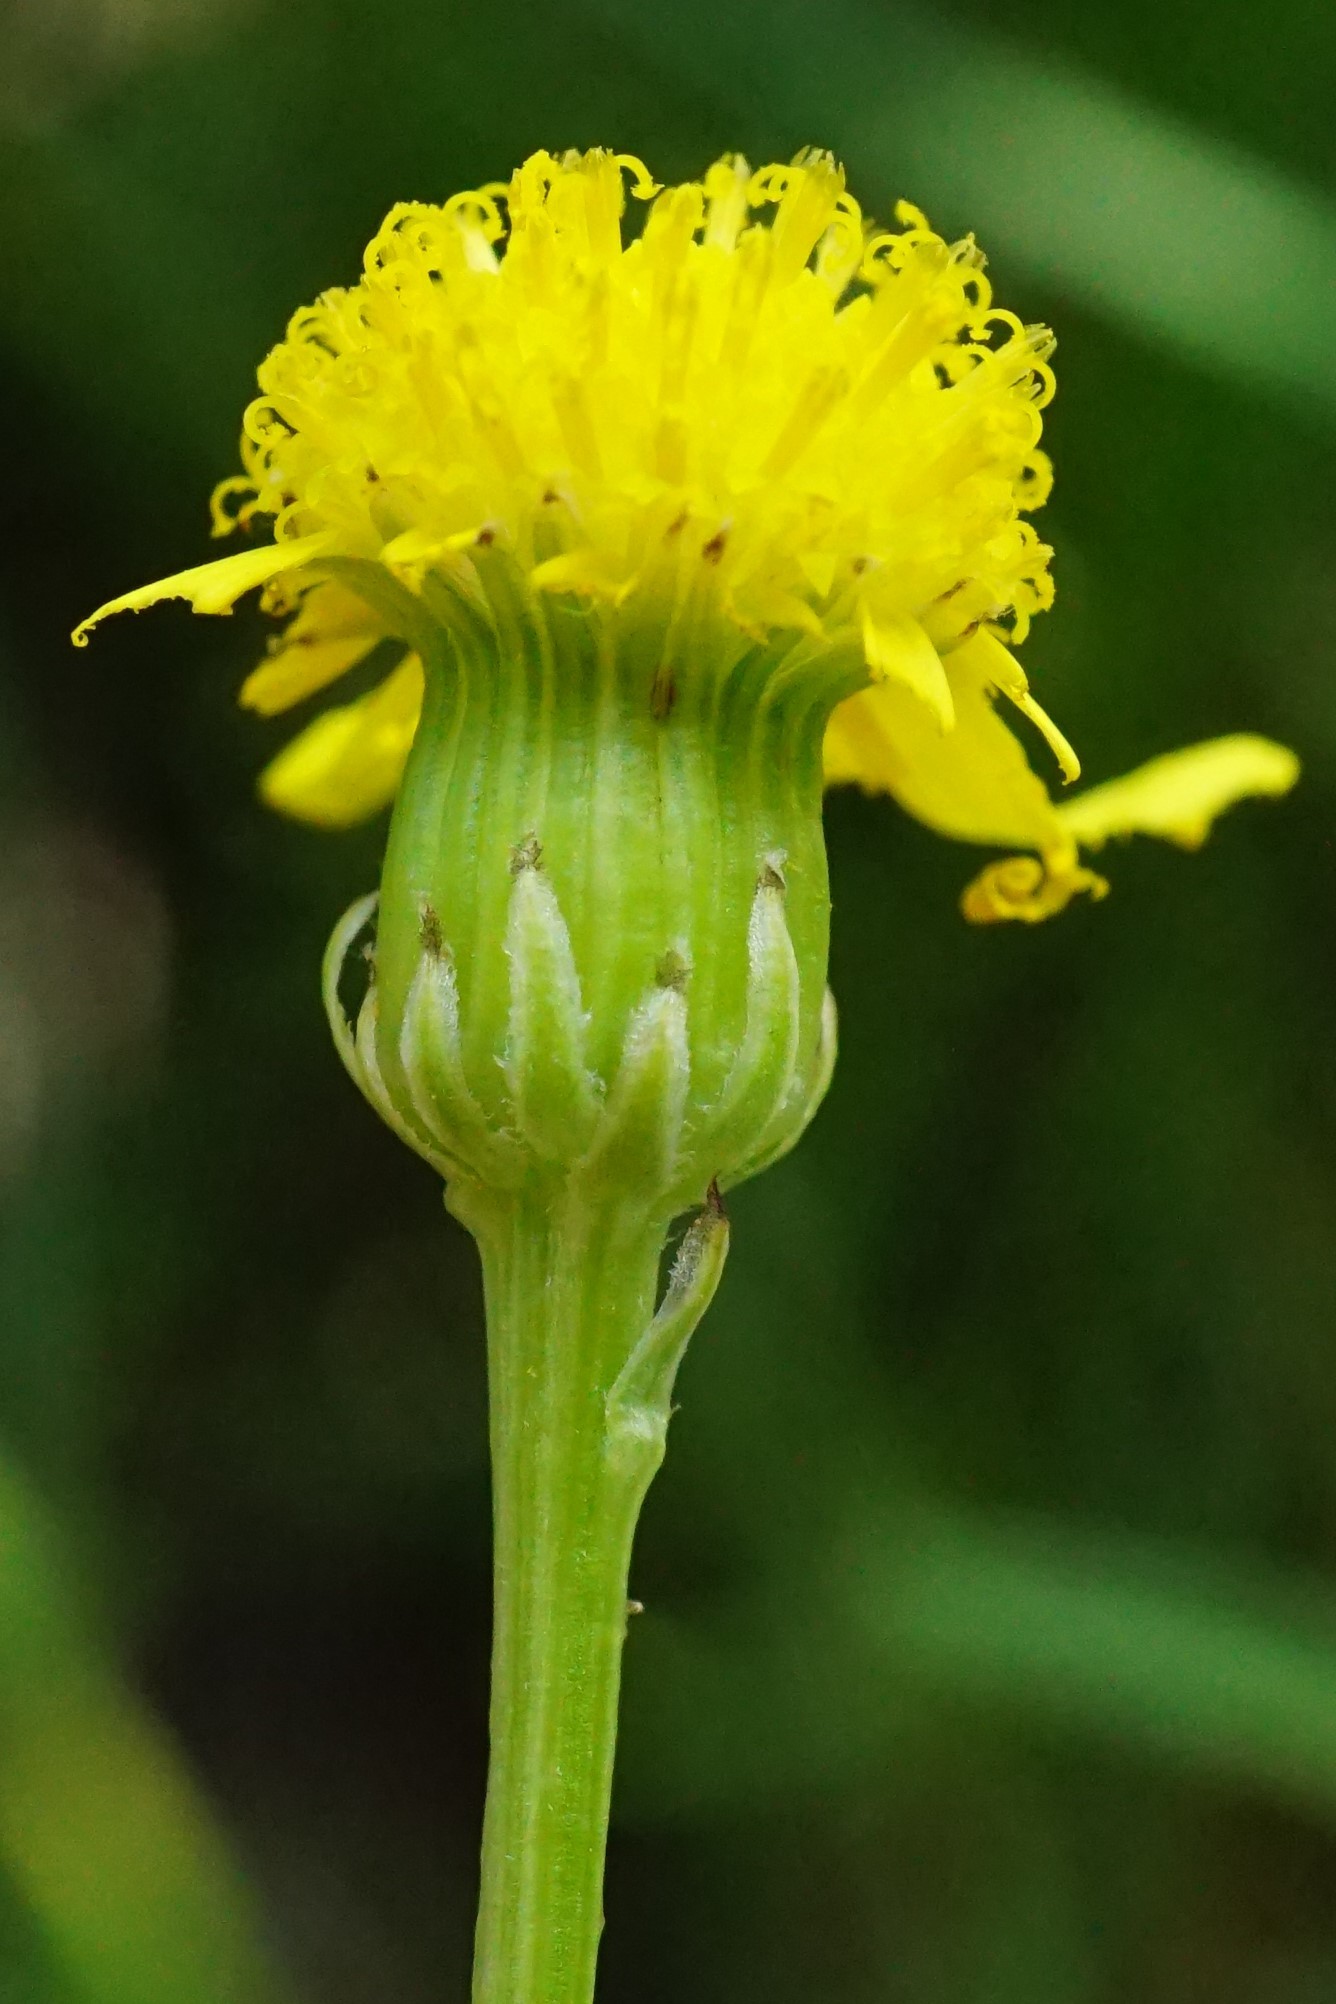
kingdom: Plantae
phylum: Tracheophyta
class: Magnoliopsida
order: Asterales
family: Asteraceae
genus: Senecio
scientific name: Senecio inaequidens
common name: Narrow-leaved ragwort
